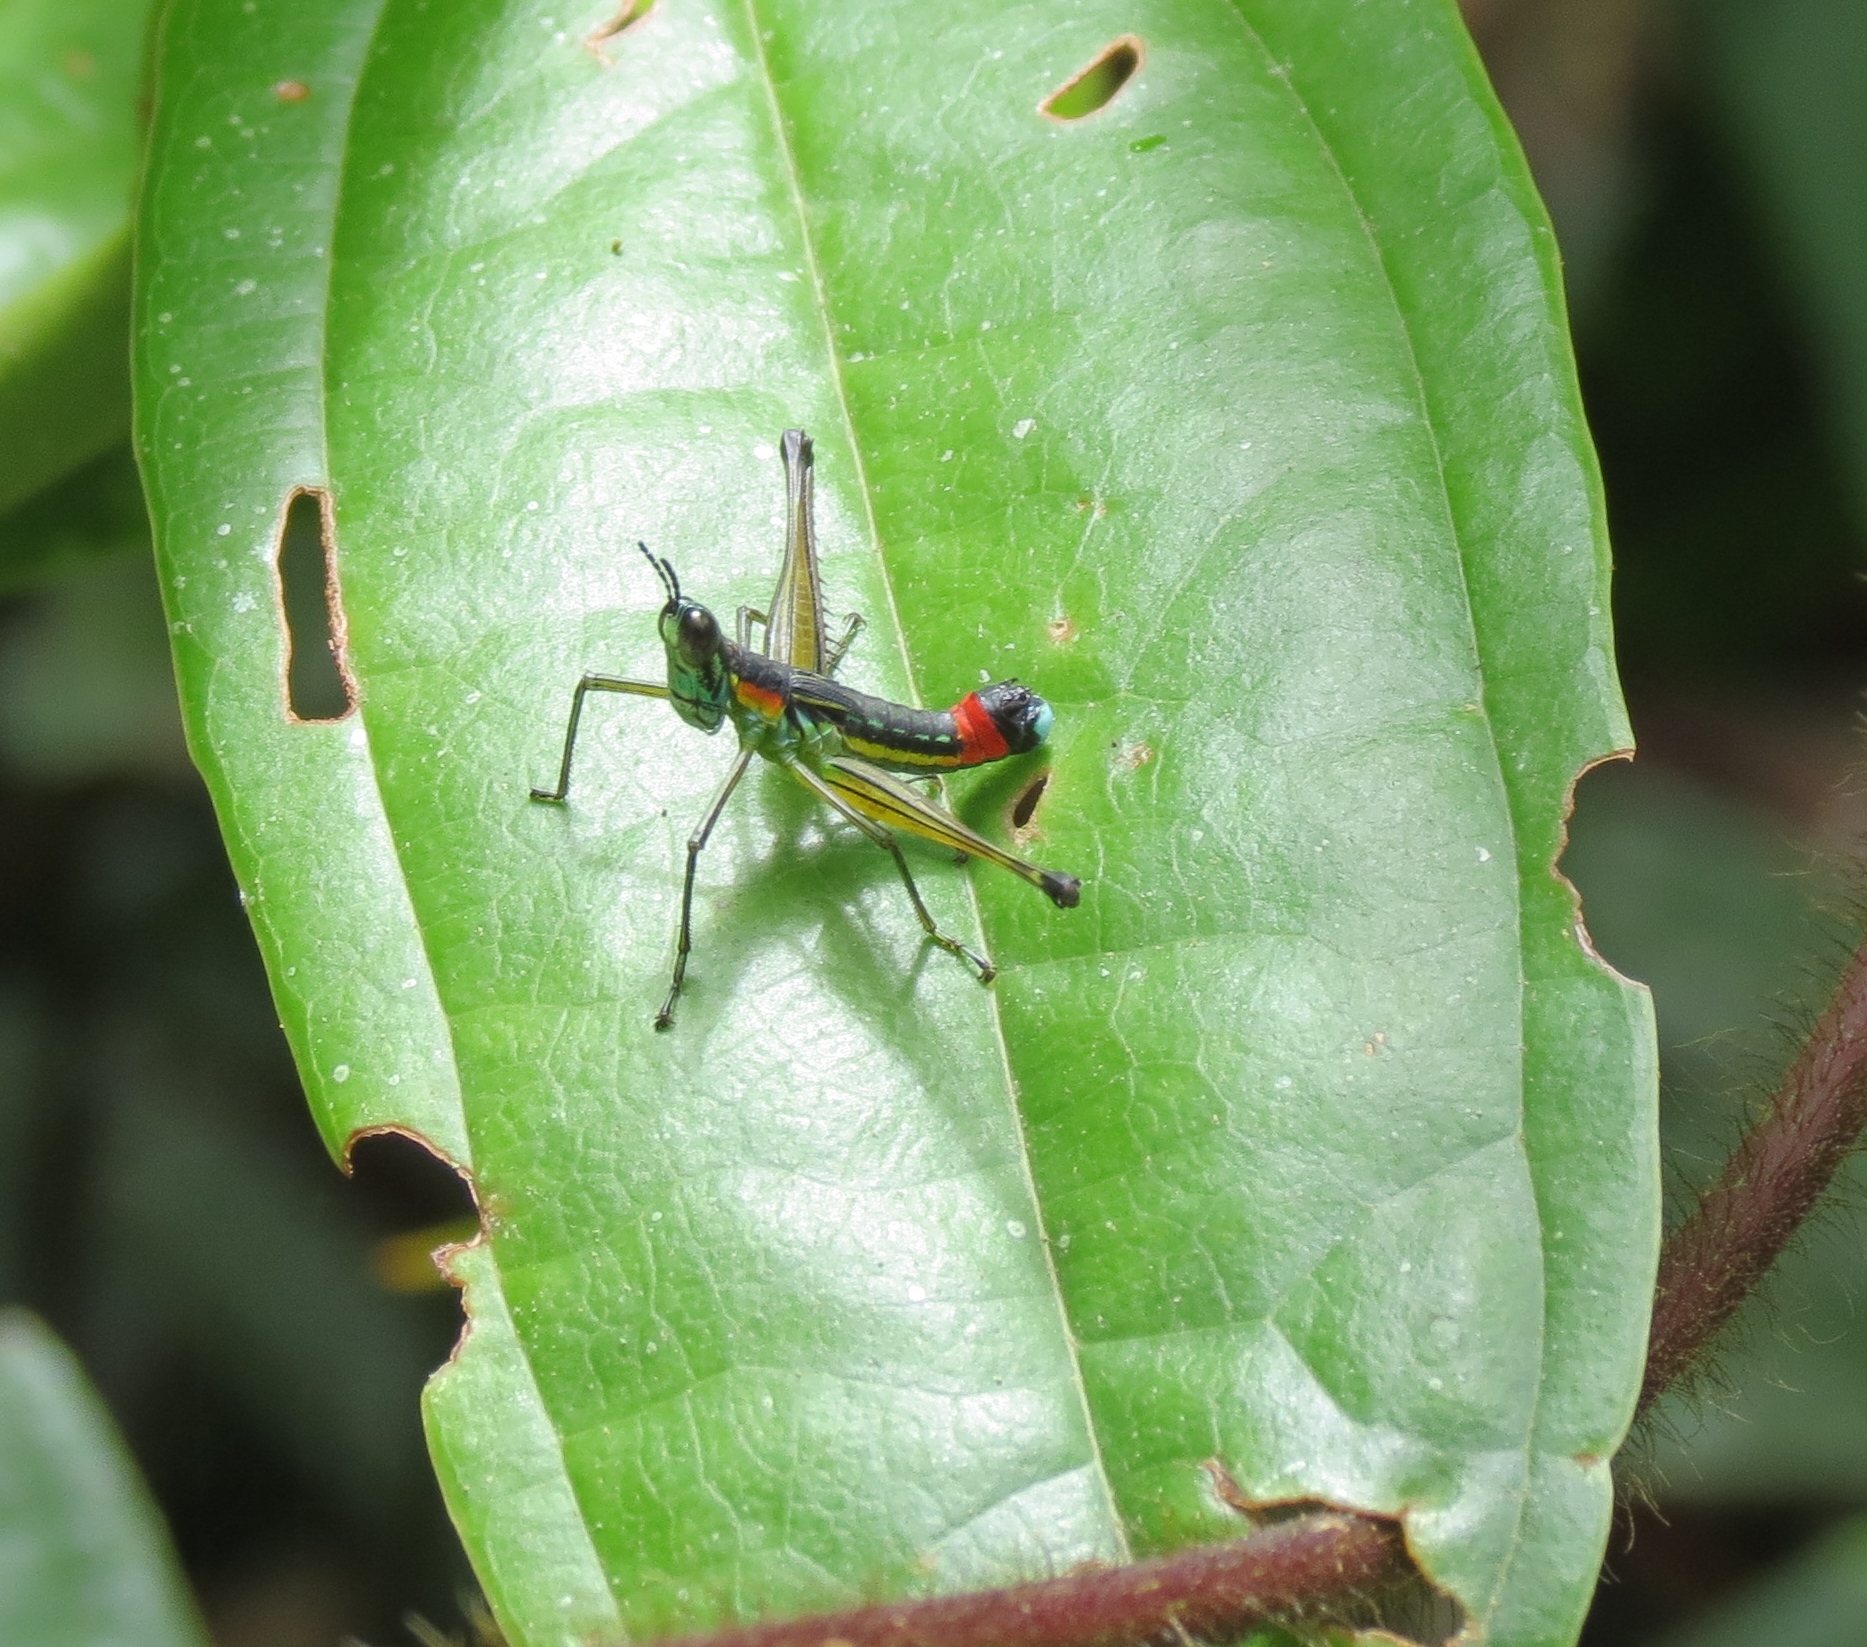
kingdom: Animalia
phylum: Arthropoda
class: Insecta
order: Orthoptera
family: Eumastacidae
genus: Paramastax
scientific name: Paramastax duquei
